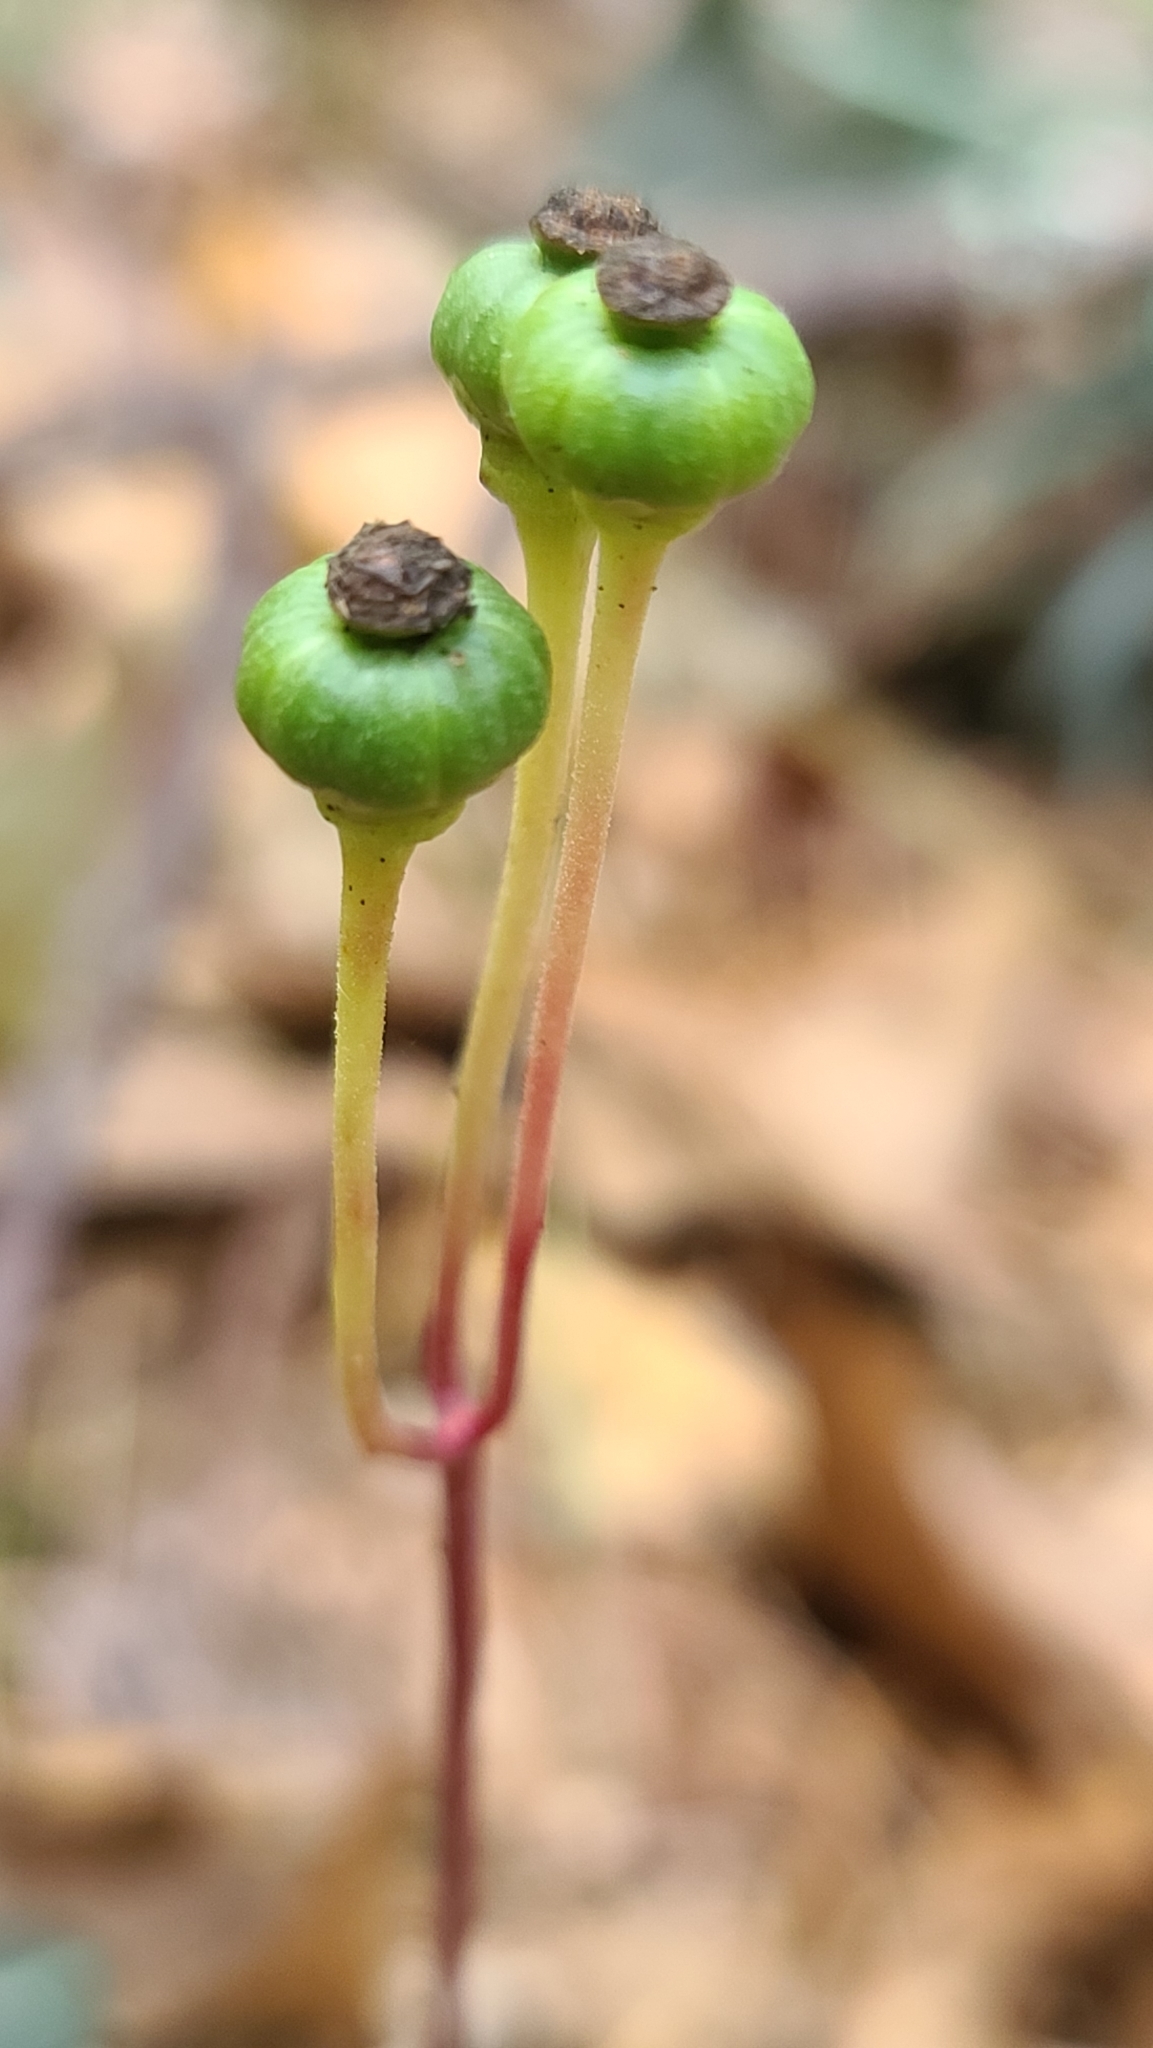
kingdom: Plantae
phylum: Tracheophyta
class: Magnoliopsida
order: Ericales
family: Ericaceae
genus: Chimaphila
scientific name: Chimaphila maculata
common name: Spotted pipsissewa
